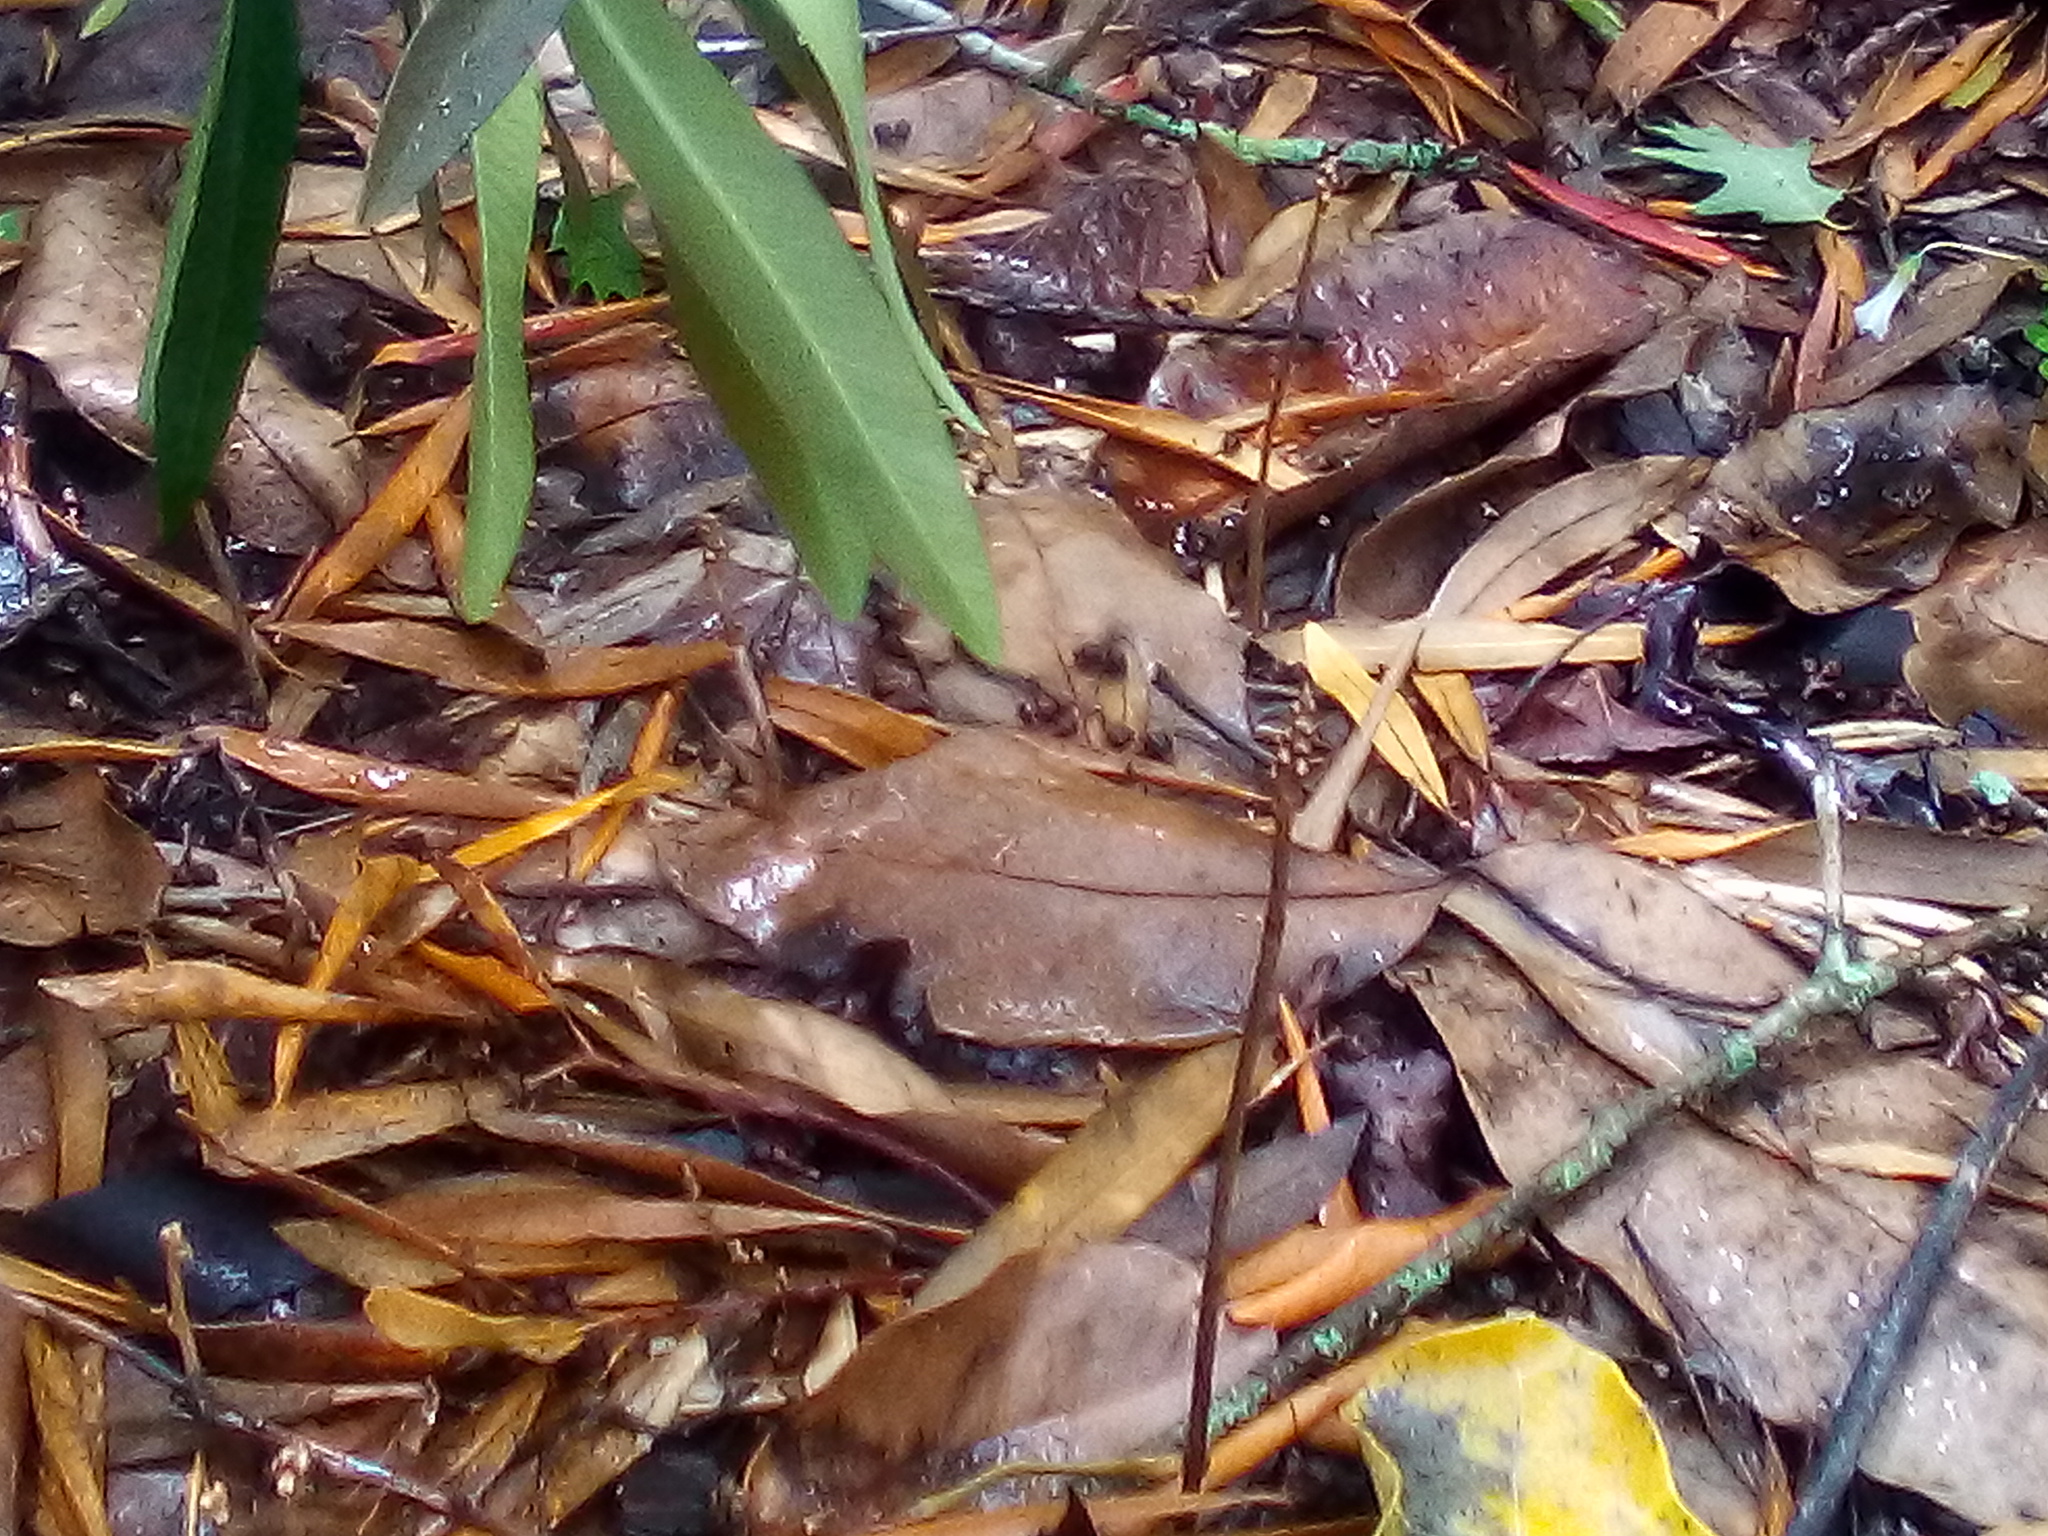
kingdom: Plantae
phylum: Tracheophyta
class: Liliopsida
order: Asparagales
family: Orchidaceae
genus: Gastrodia
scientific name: Gastrodia sesamoides
